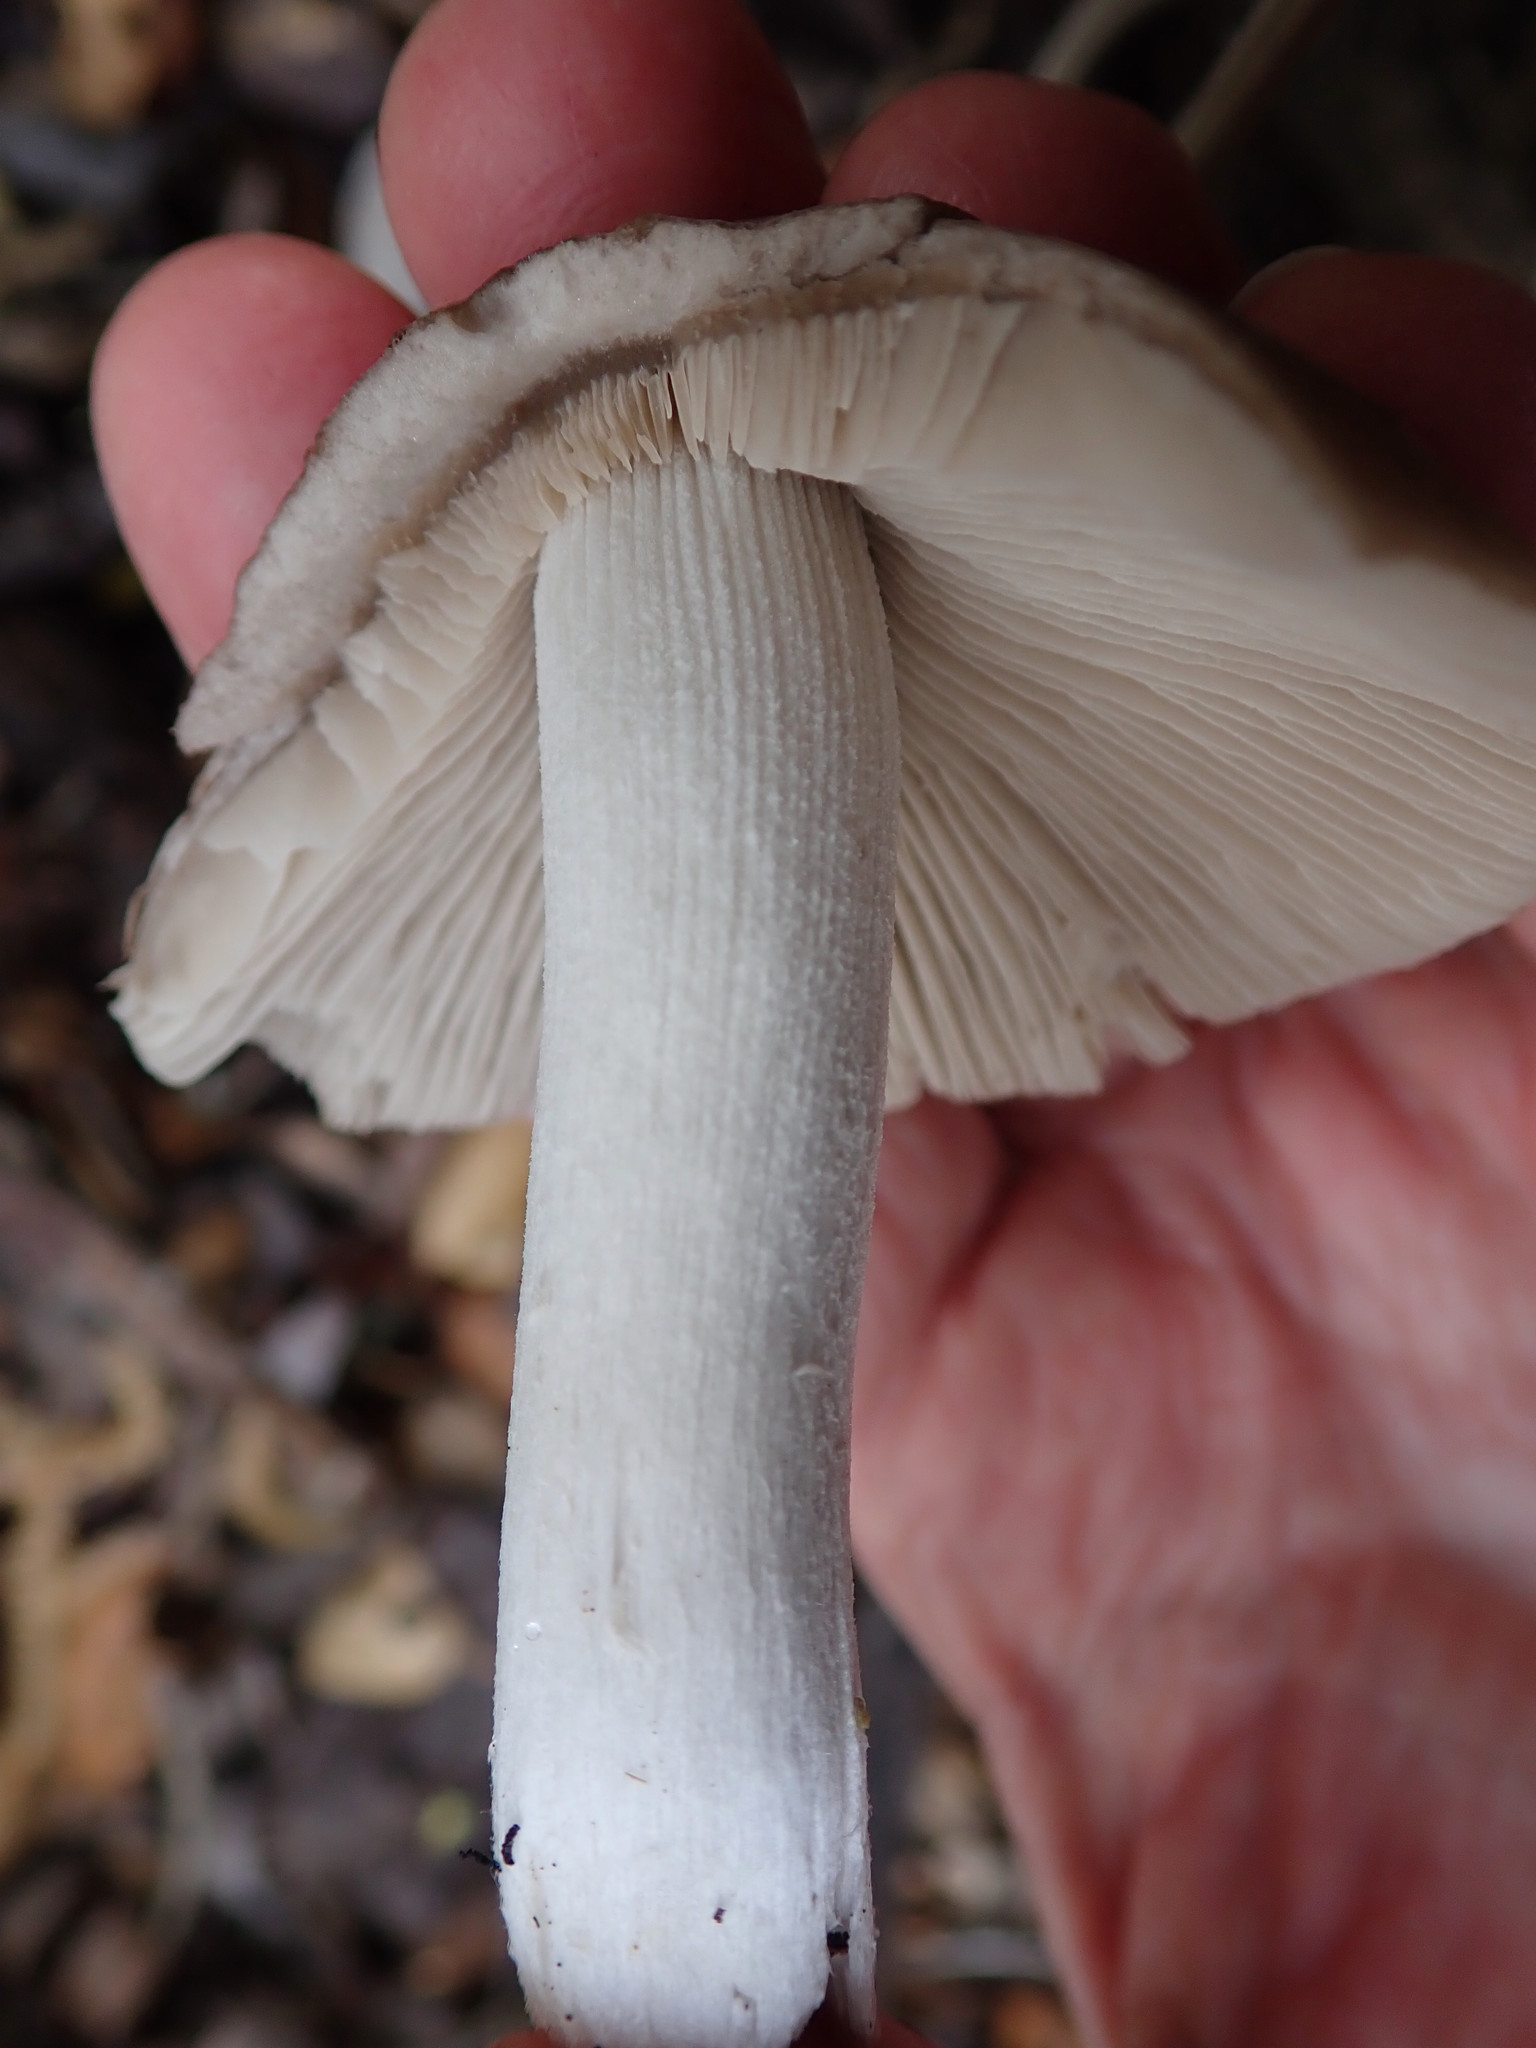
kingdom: Fungi
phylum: Basidiomycota
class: Agaricomycetes
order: Agaricales
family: Psathyrellaceae
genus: Psathyrella
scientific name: Psathyrella uliginicola
